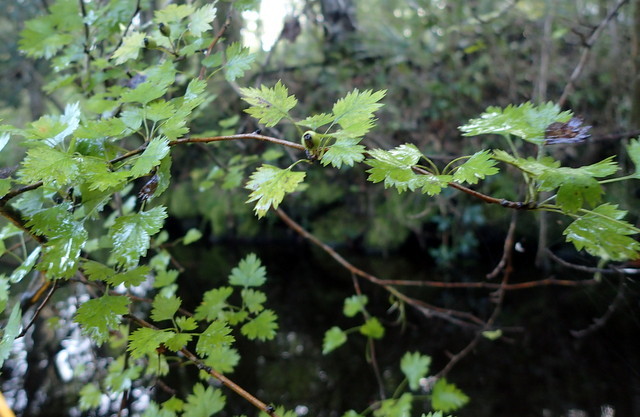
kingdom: Plantae
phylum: Tracheophyta
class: Magnoliopsida
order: Rosales
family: Rosaceae
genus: Crataegus
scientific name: Crataegus marshallii
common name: Parsley-hawthorn
